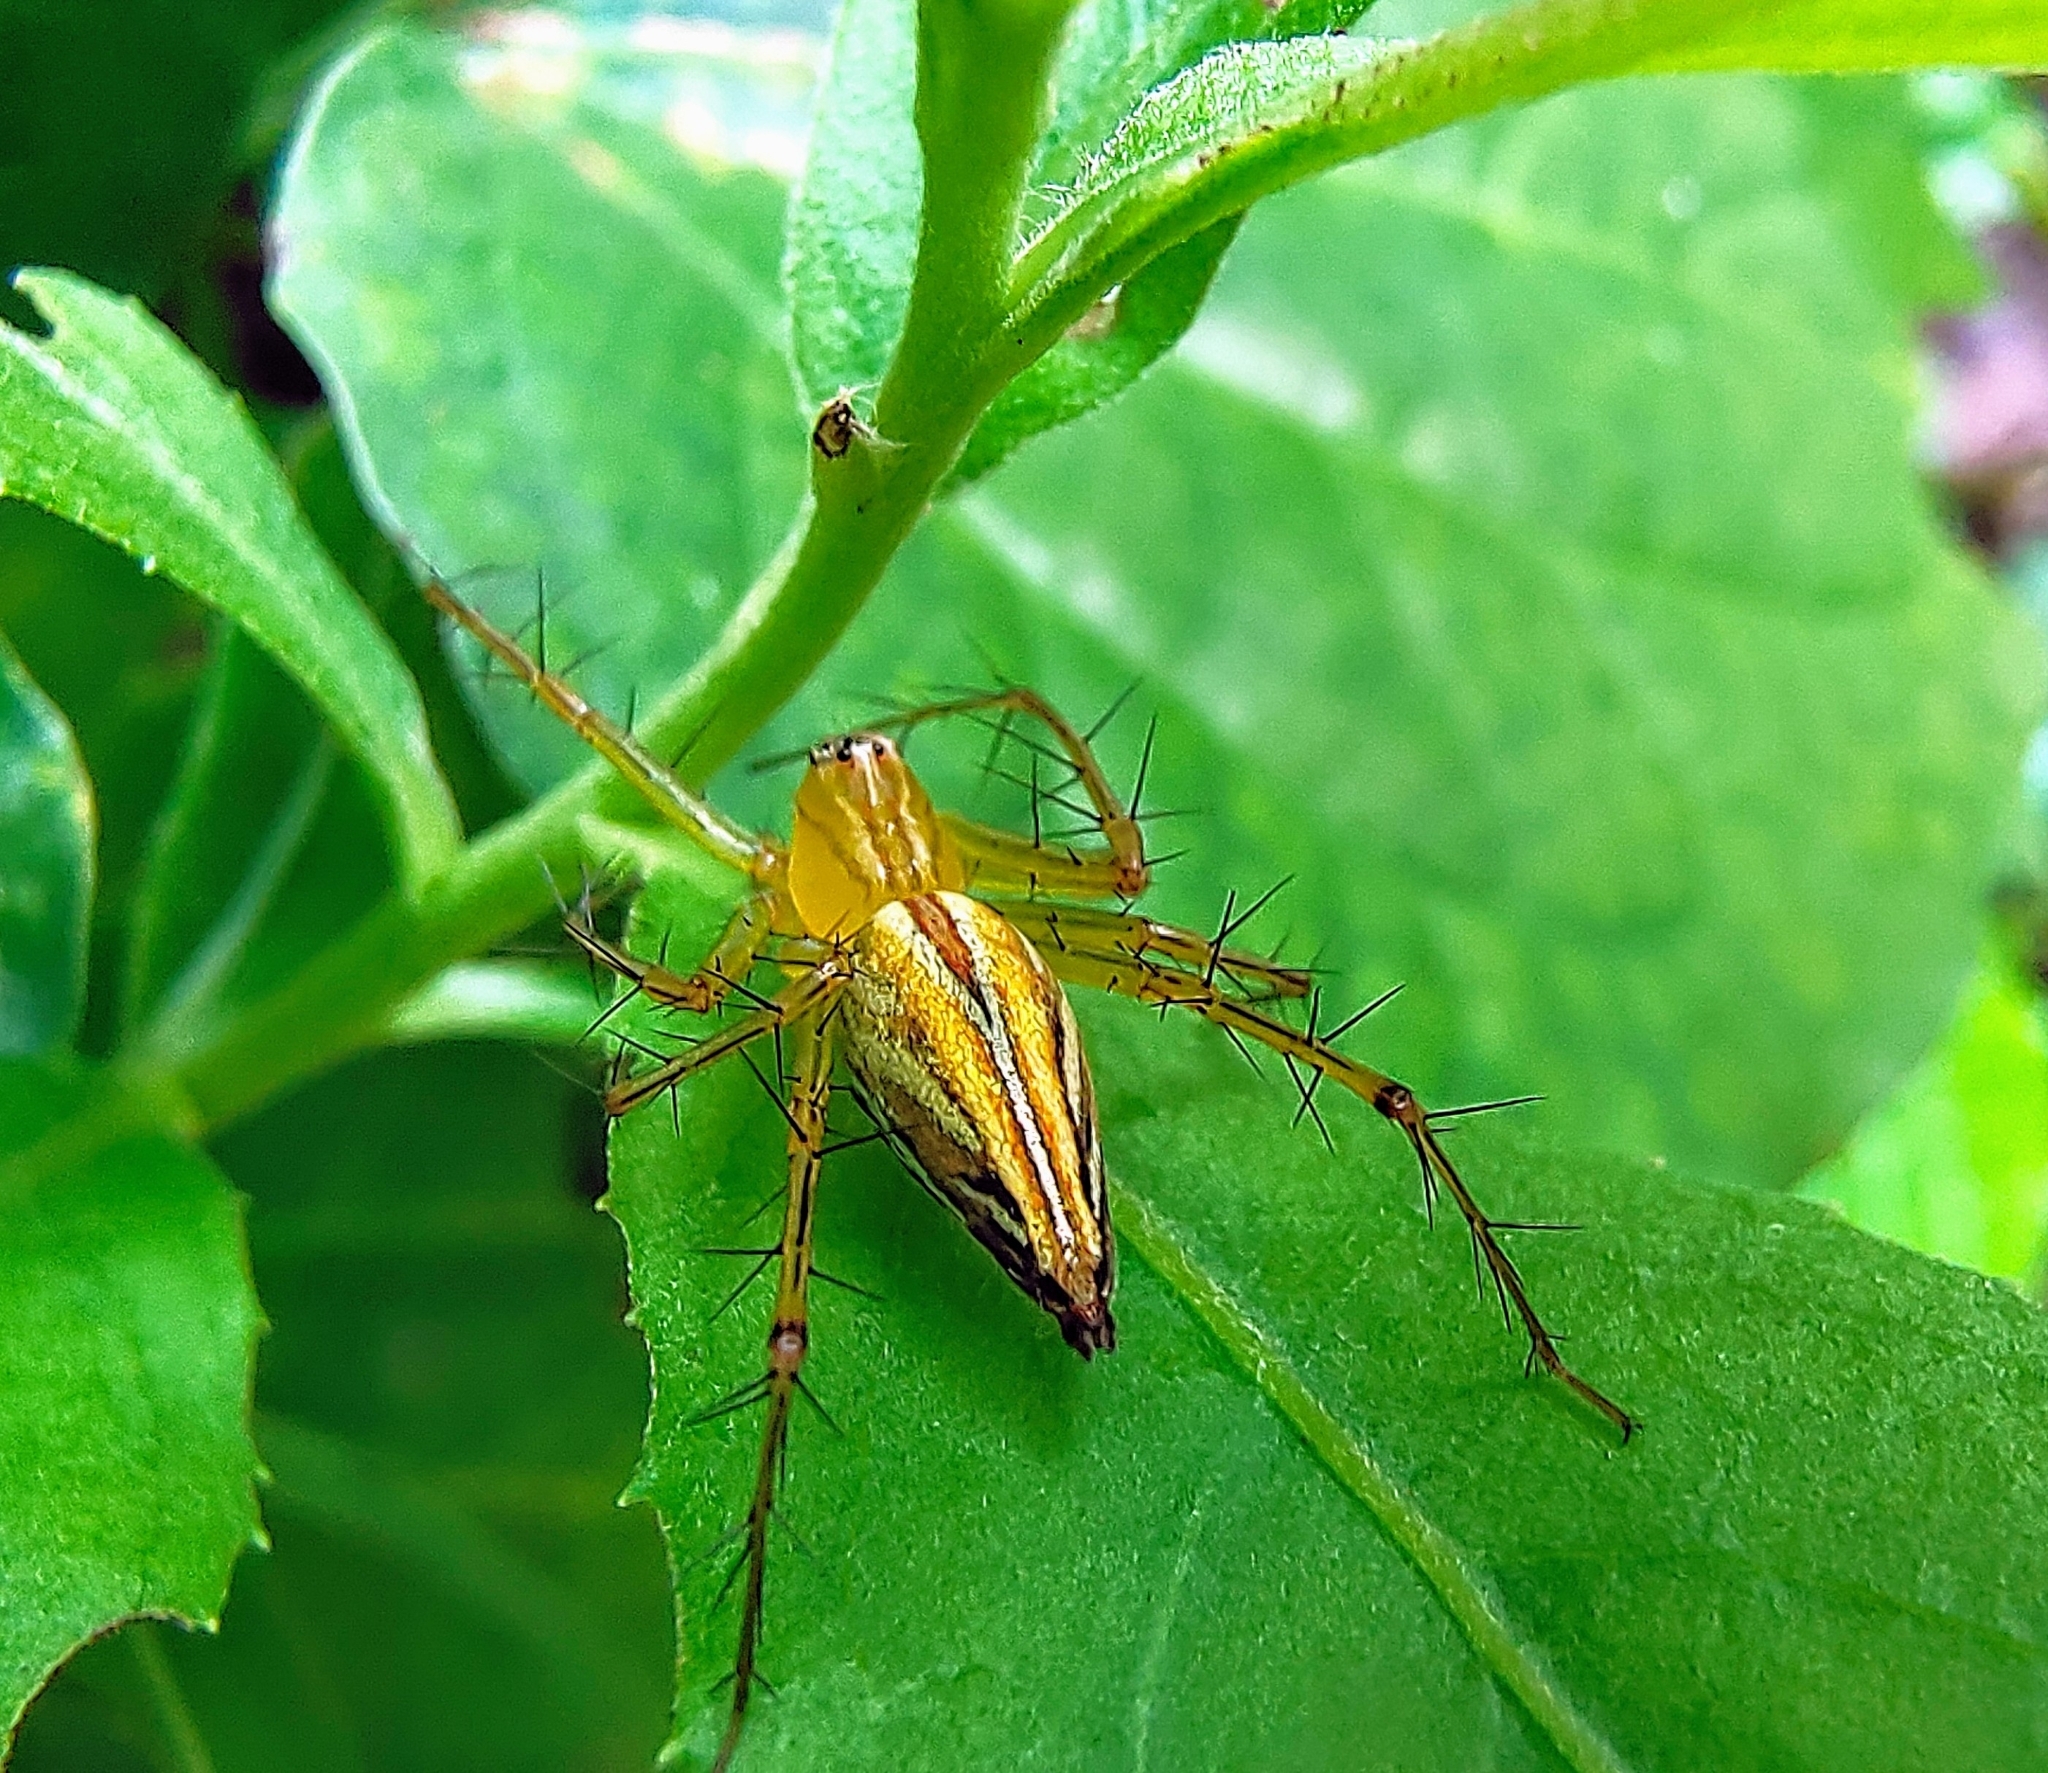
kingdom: Animalia
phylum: Arthropoda
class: Arachnida
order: Araneae
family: Oxyopidae
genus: Oxyopes
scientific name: Oxyopes
